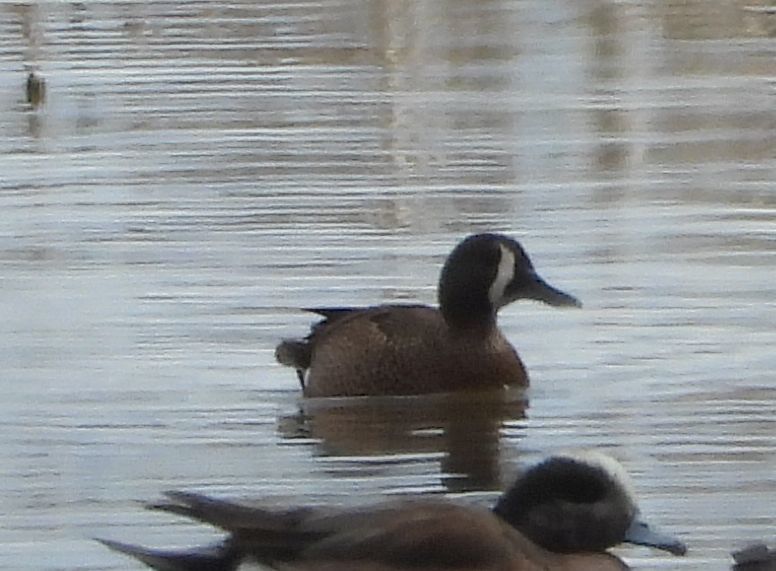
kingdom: Animalia
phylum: Chordata
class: Aves
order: Anseriformes
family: Anatidae
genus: Spatula
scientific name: Spatula discors
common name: Blue-winged teal
